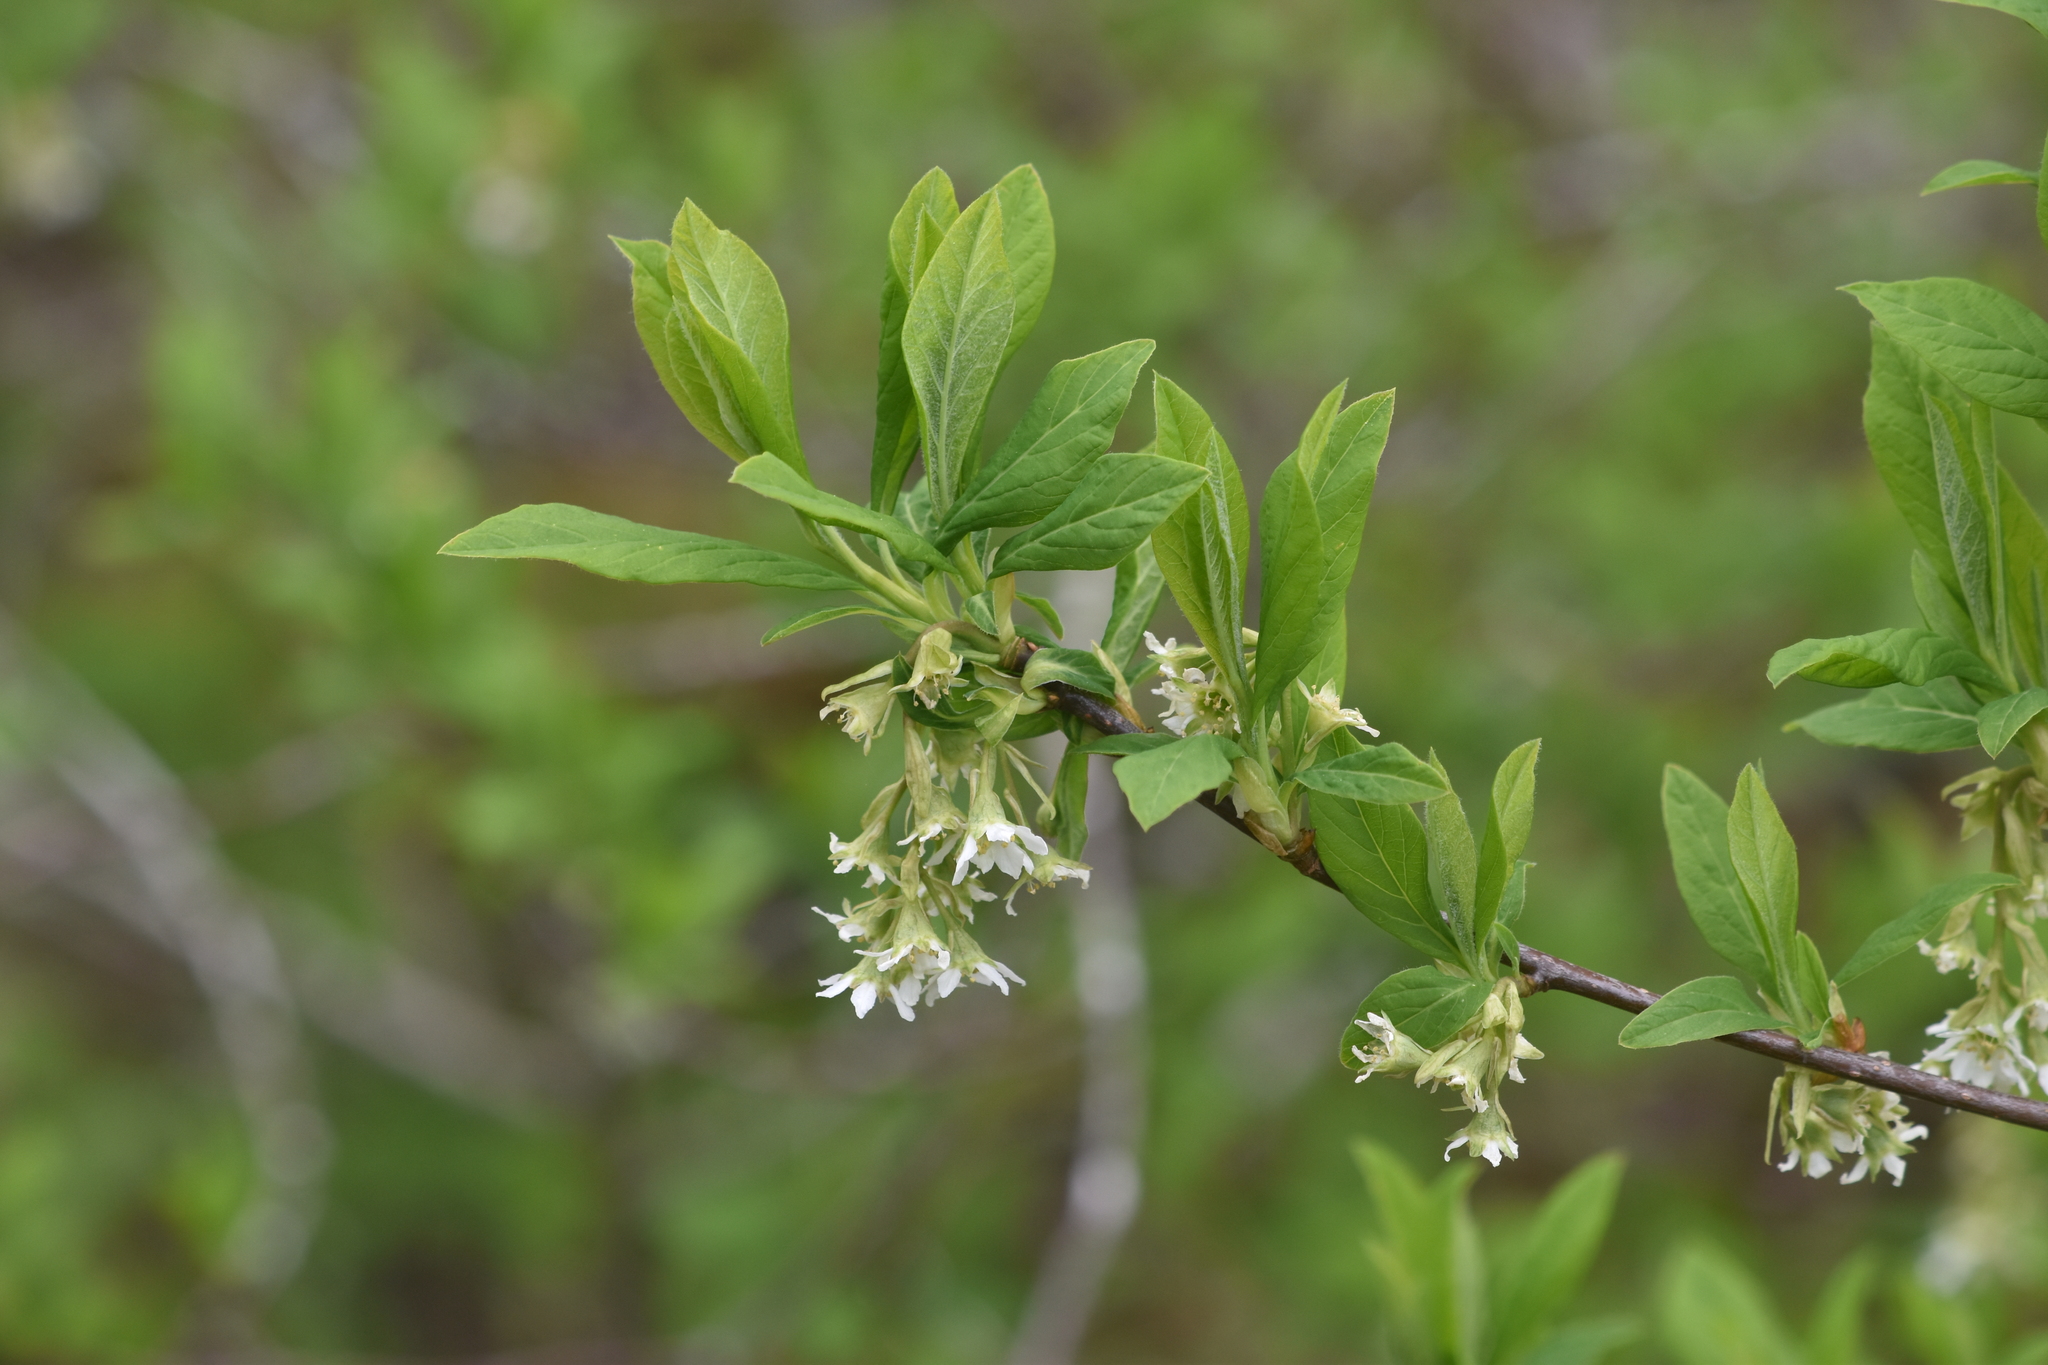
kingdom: Plantae
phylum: Tracheophyta
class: Magnoliopsida
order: Rosales
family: Rosaceae
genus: Oemleria
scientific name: Oemleria cerasiformis
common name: Osoberry
